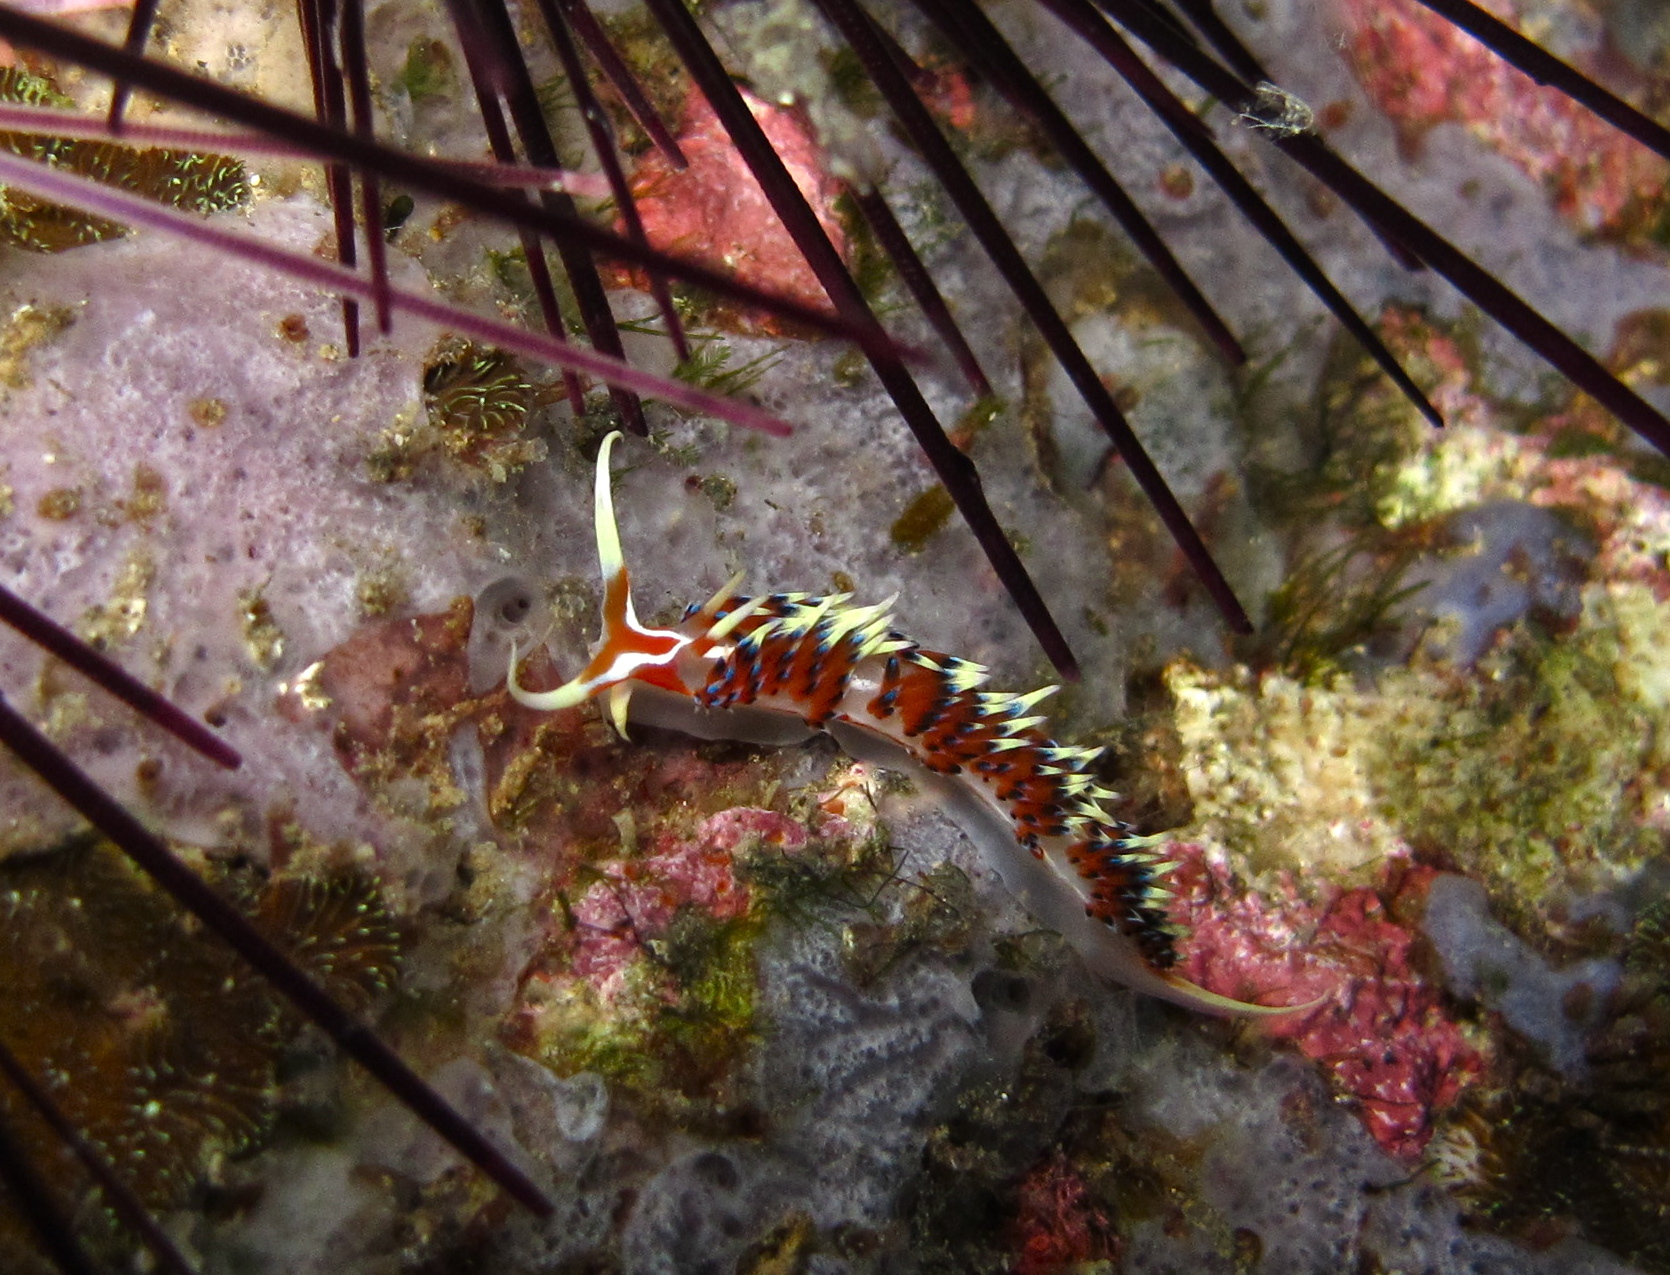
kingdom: Animalia
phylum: Mollusca
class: Gastropoda
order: Nudibranchia
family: Facelinidae
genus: Caloria
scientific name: Caloria indica
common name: Sea slug
